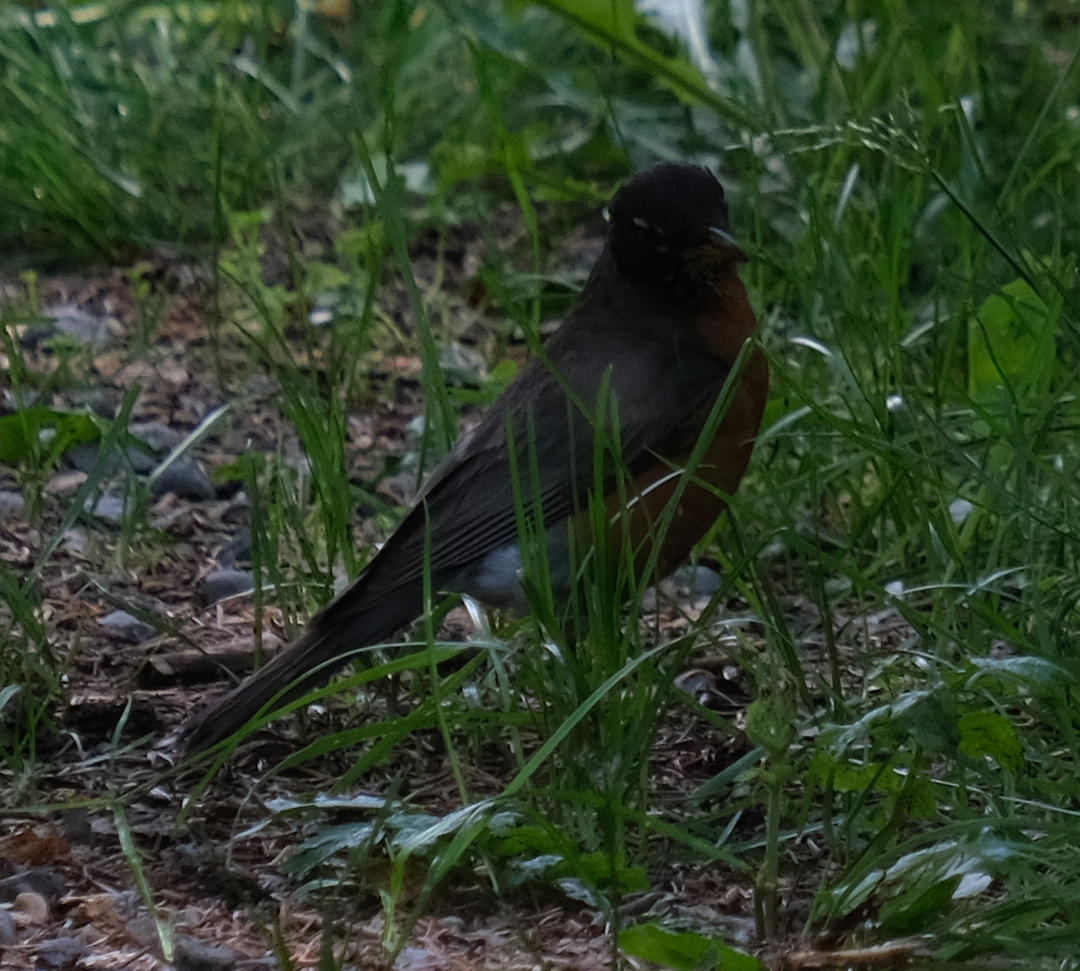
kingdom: Animalia
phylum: Chordata
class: Aves
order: Passeriformes
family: Turdidae
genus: Turdus
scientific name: Turdus migratorius
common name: American robin
